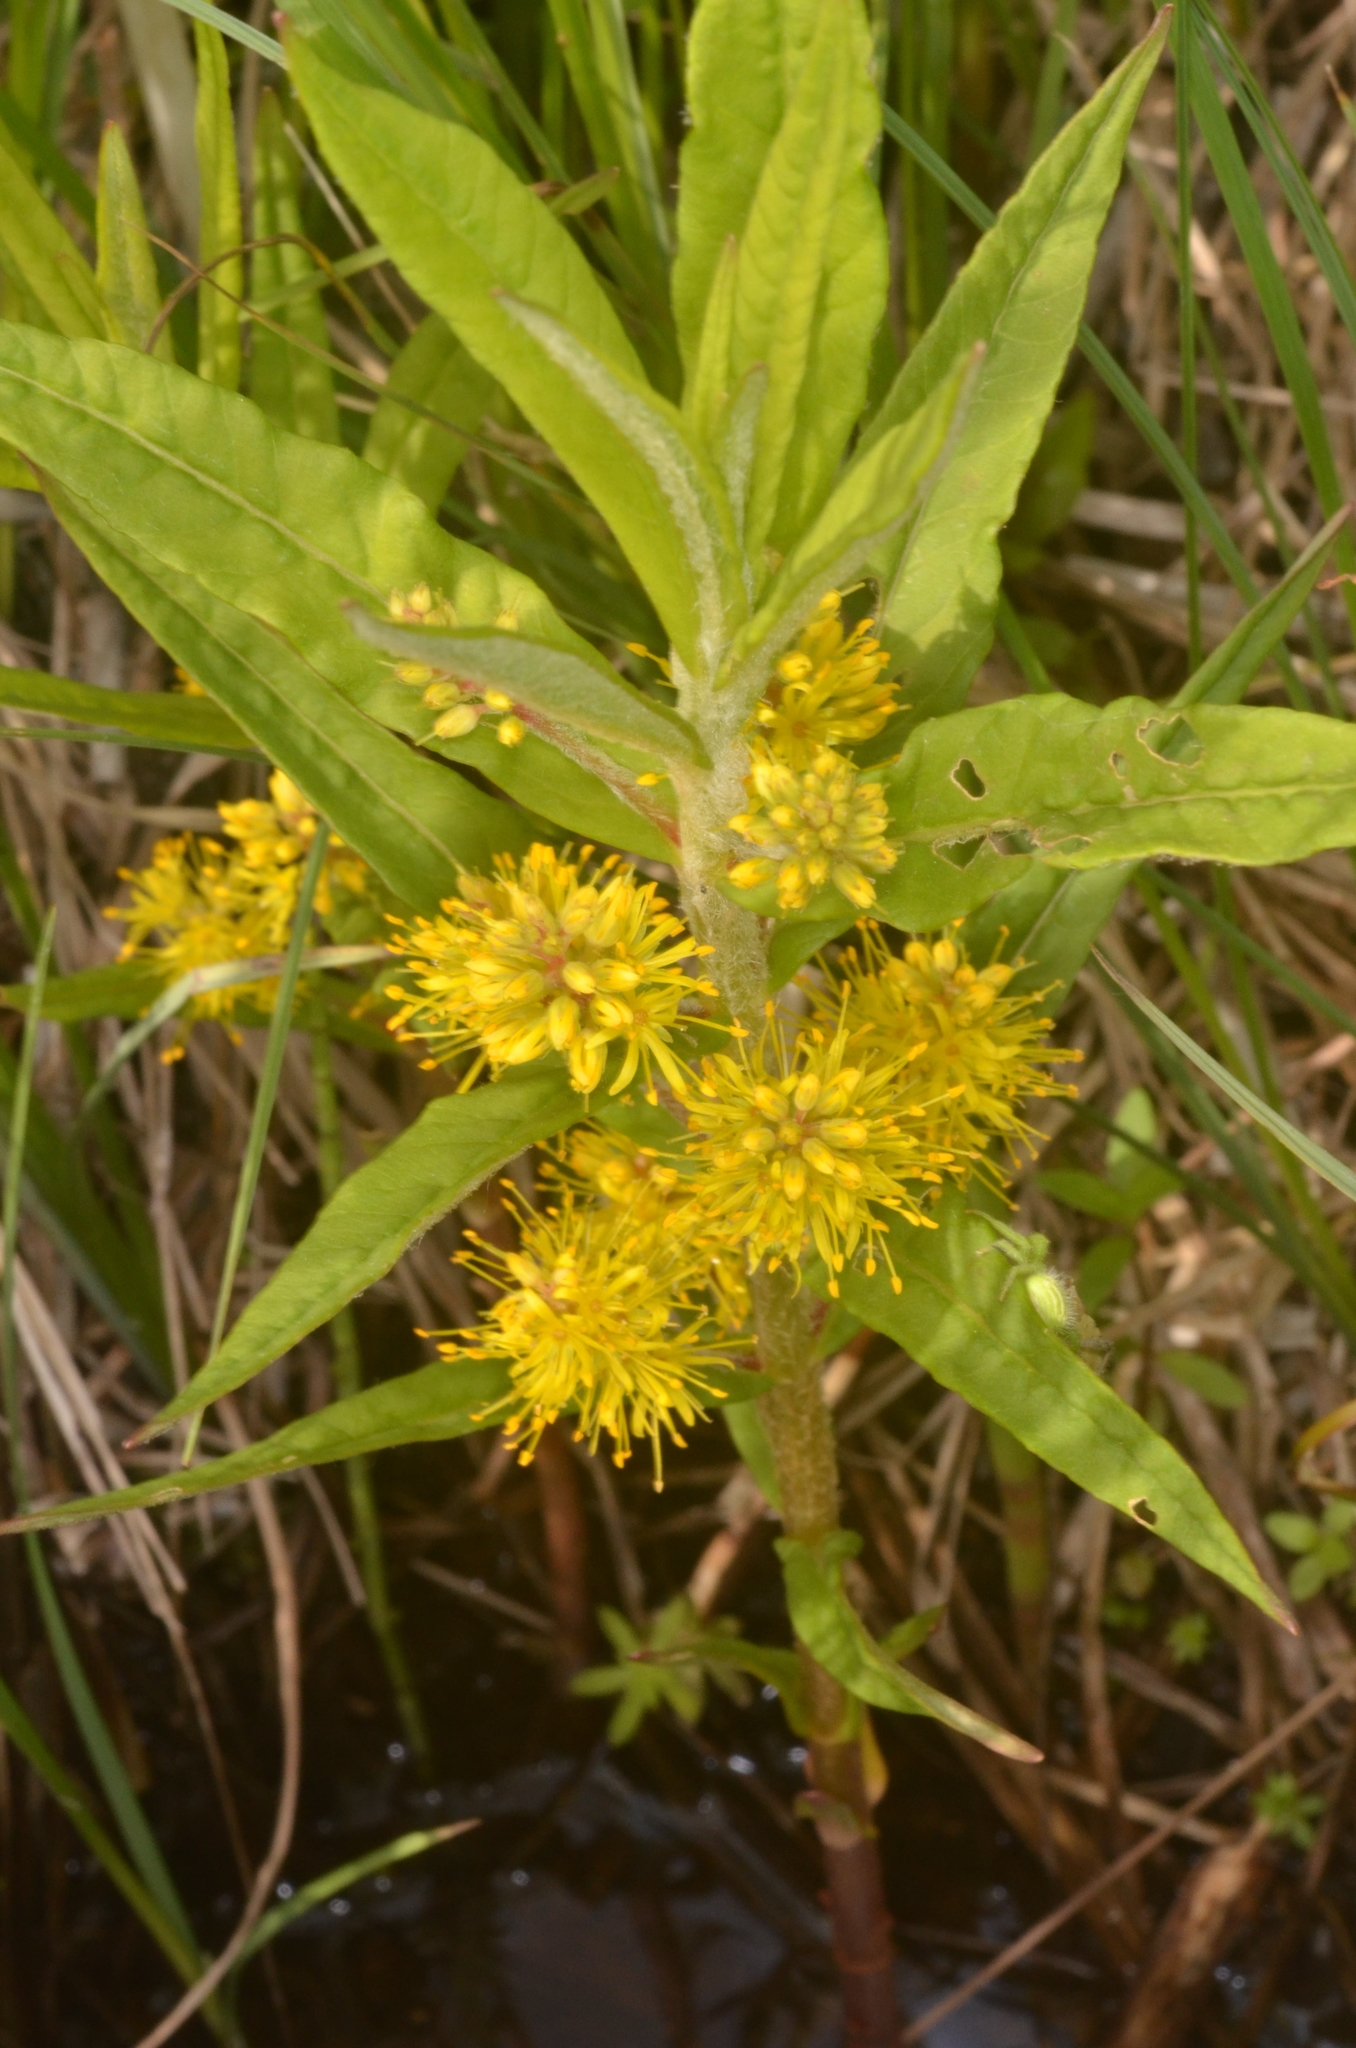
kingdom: Plantae
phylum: Tracheophyta
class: Magnoliopsida
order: Ericales
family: Primulaceae
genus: Lysimachia
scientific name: Lysimachia thyrsiflora
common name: Tufted loosestrife
